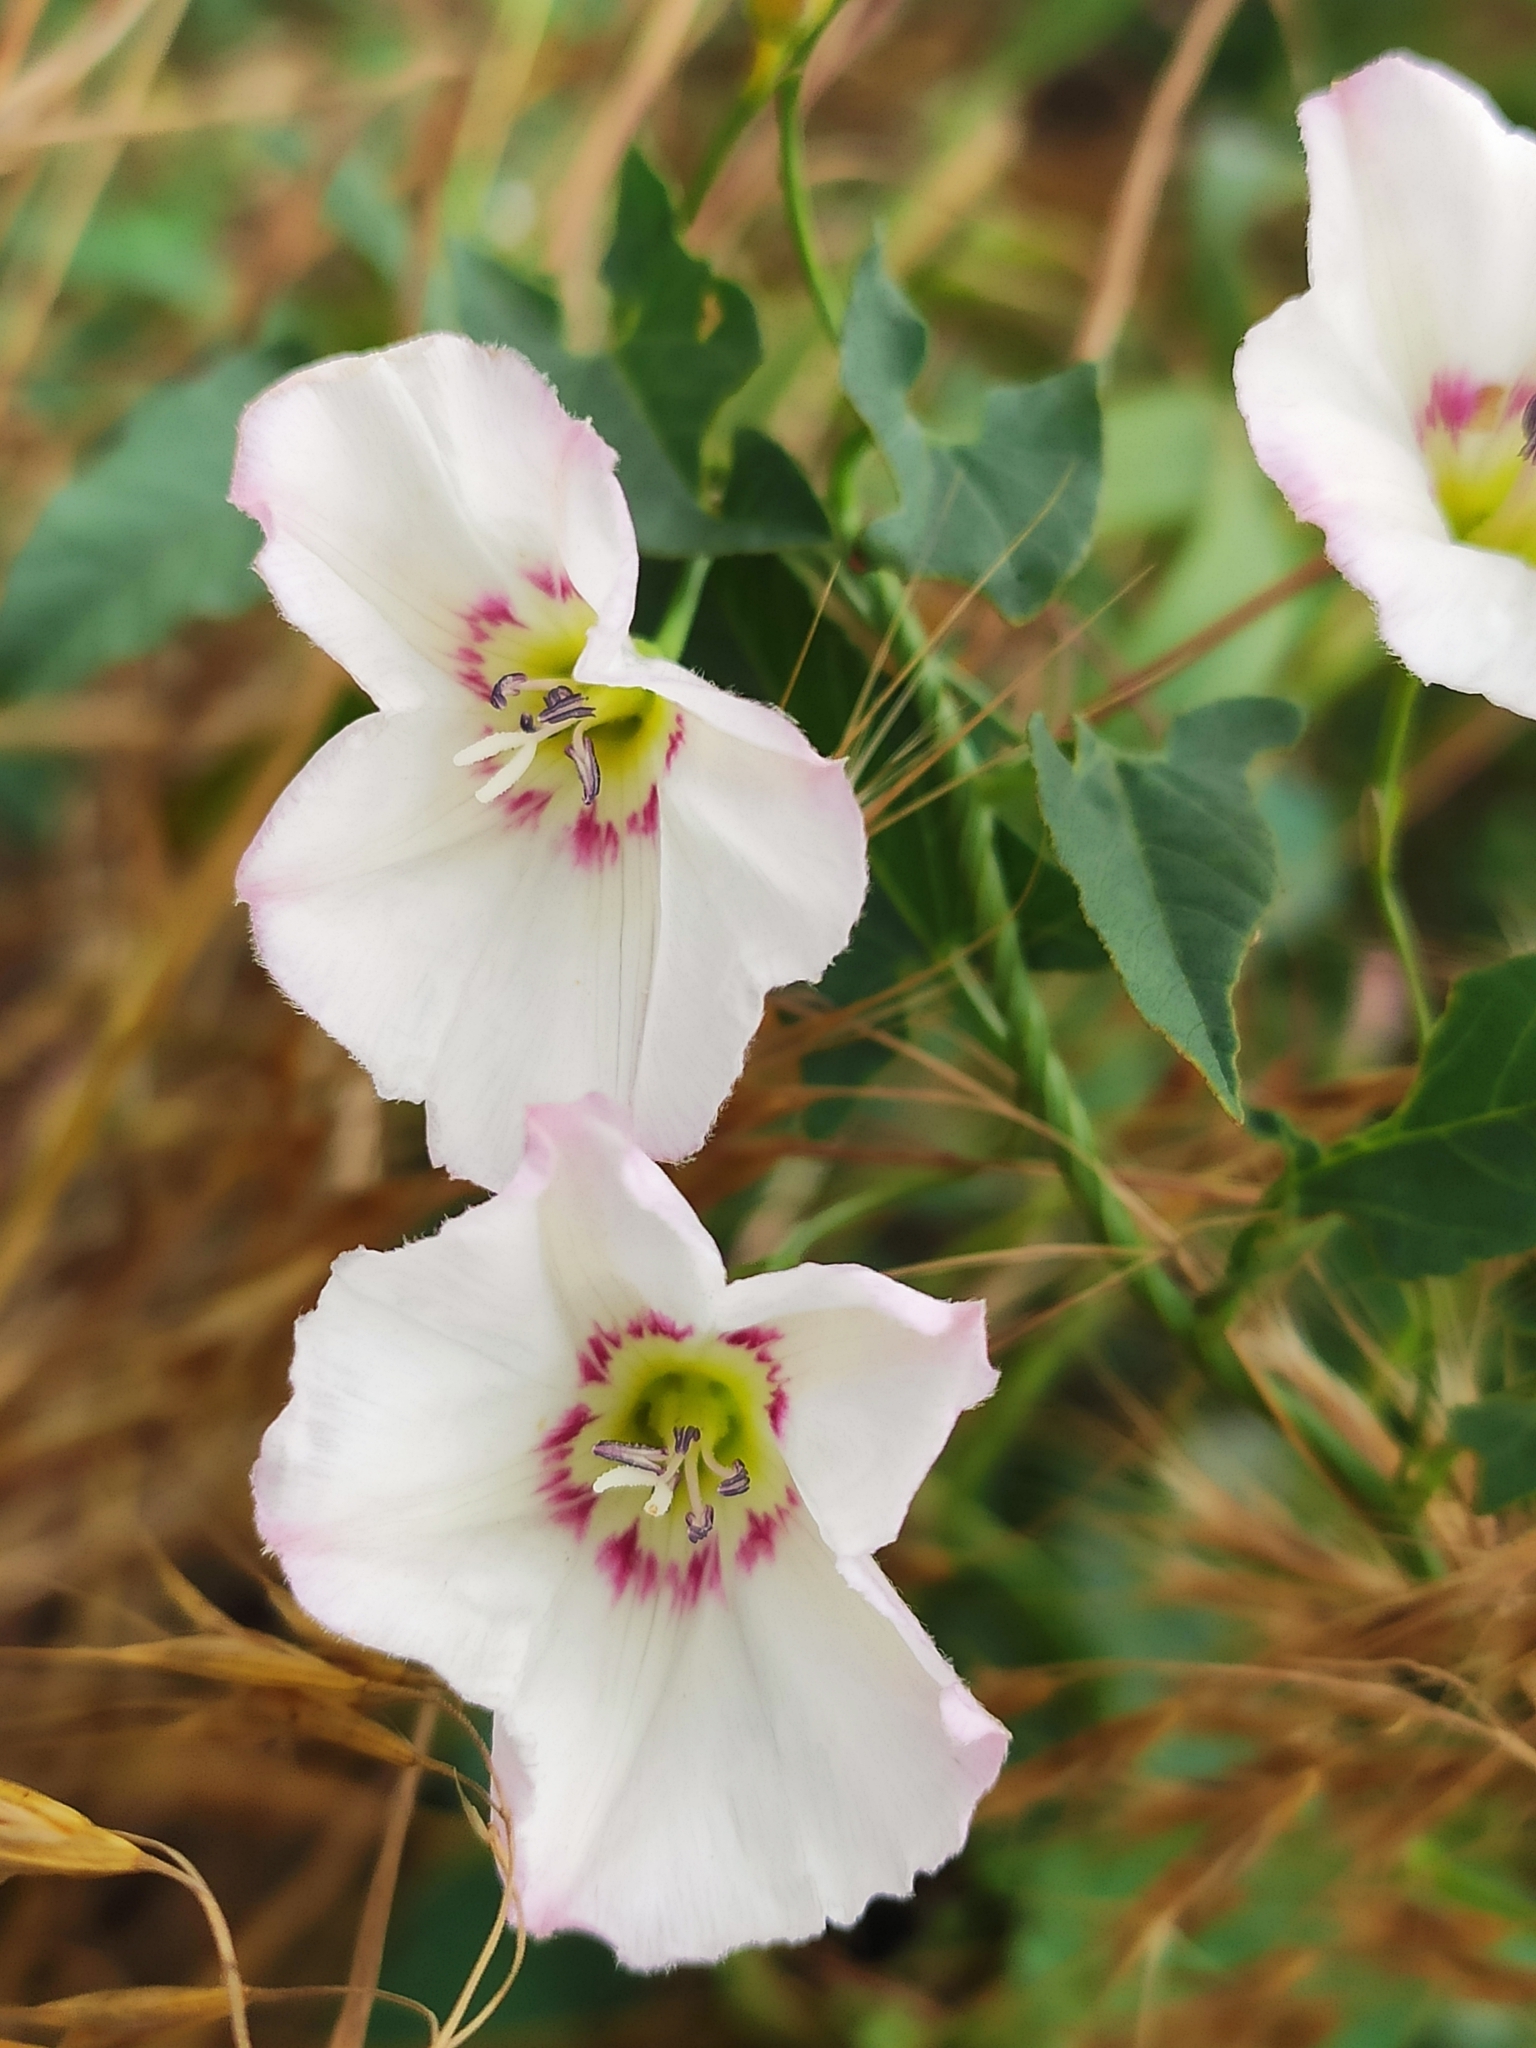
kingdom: Plantae
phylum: Tracheophyta
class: Magnoliopsida
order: Solanales
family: Convolvulaceae
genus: Convolvulus
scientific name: Convolvulus arvensis
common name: Field bindweed
